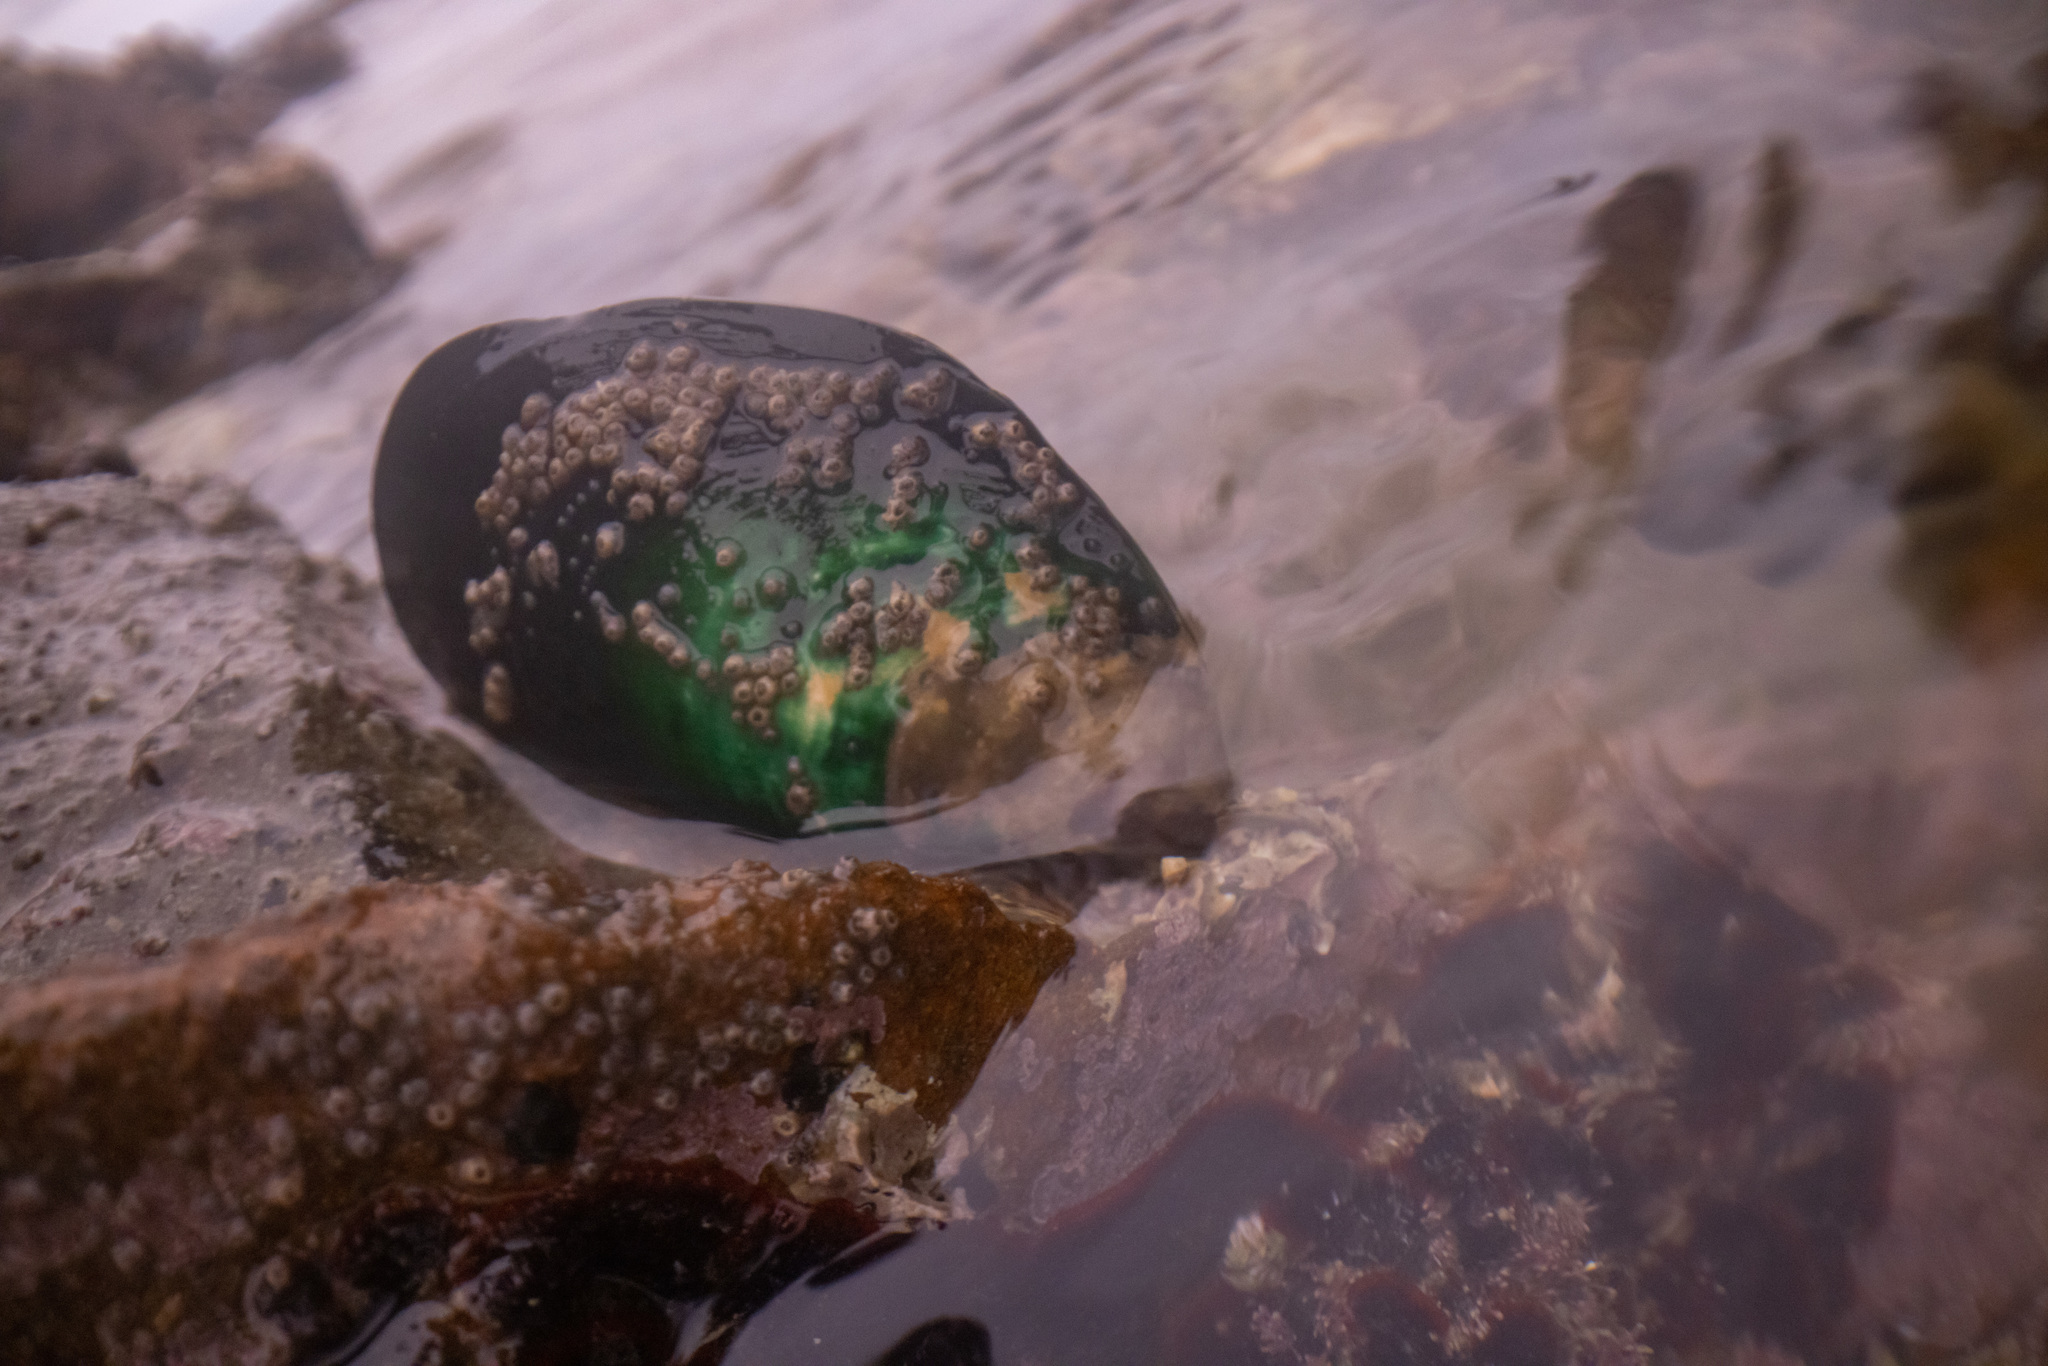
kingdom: Animalia
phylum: Mollusca
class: Bivalvia
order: Mytilida
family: Mytilidae
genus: Perna
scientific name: Perna canaliculus
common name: New zealand greenshelltm
